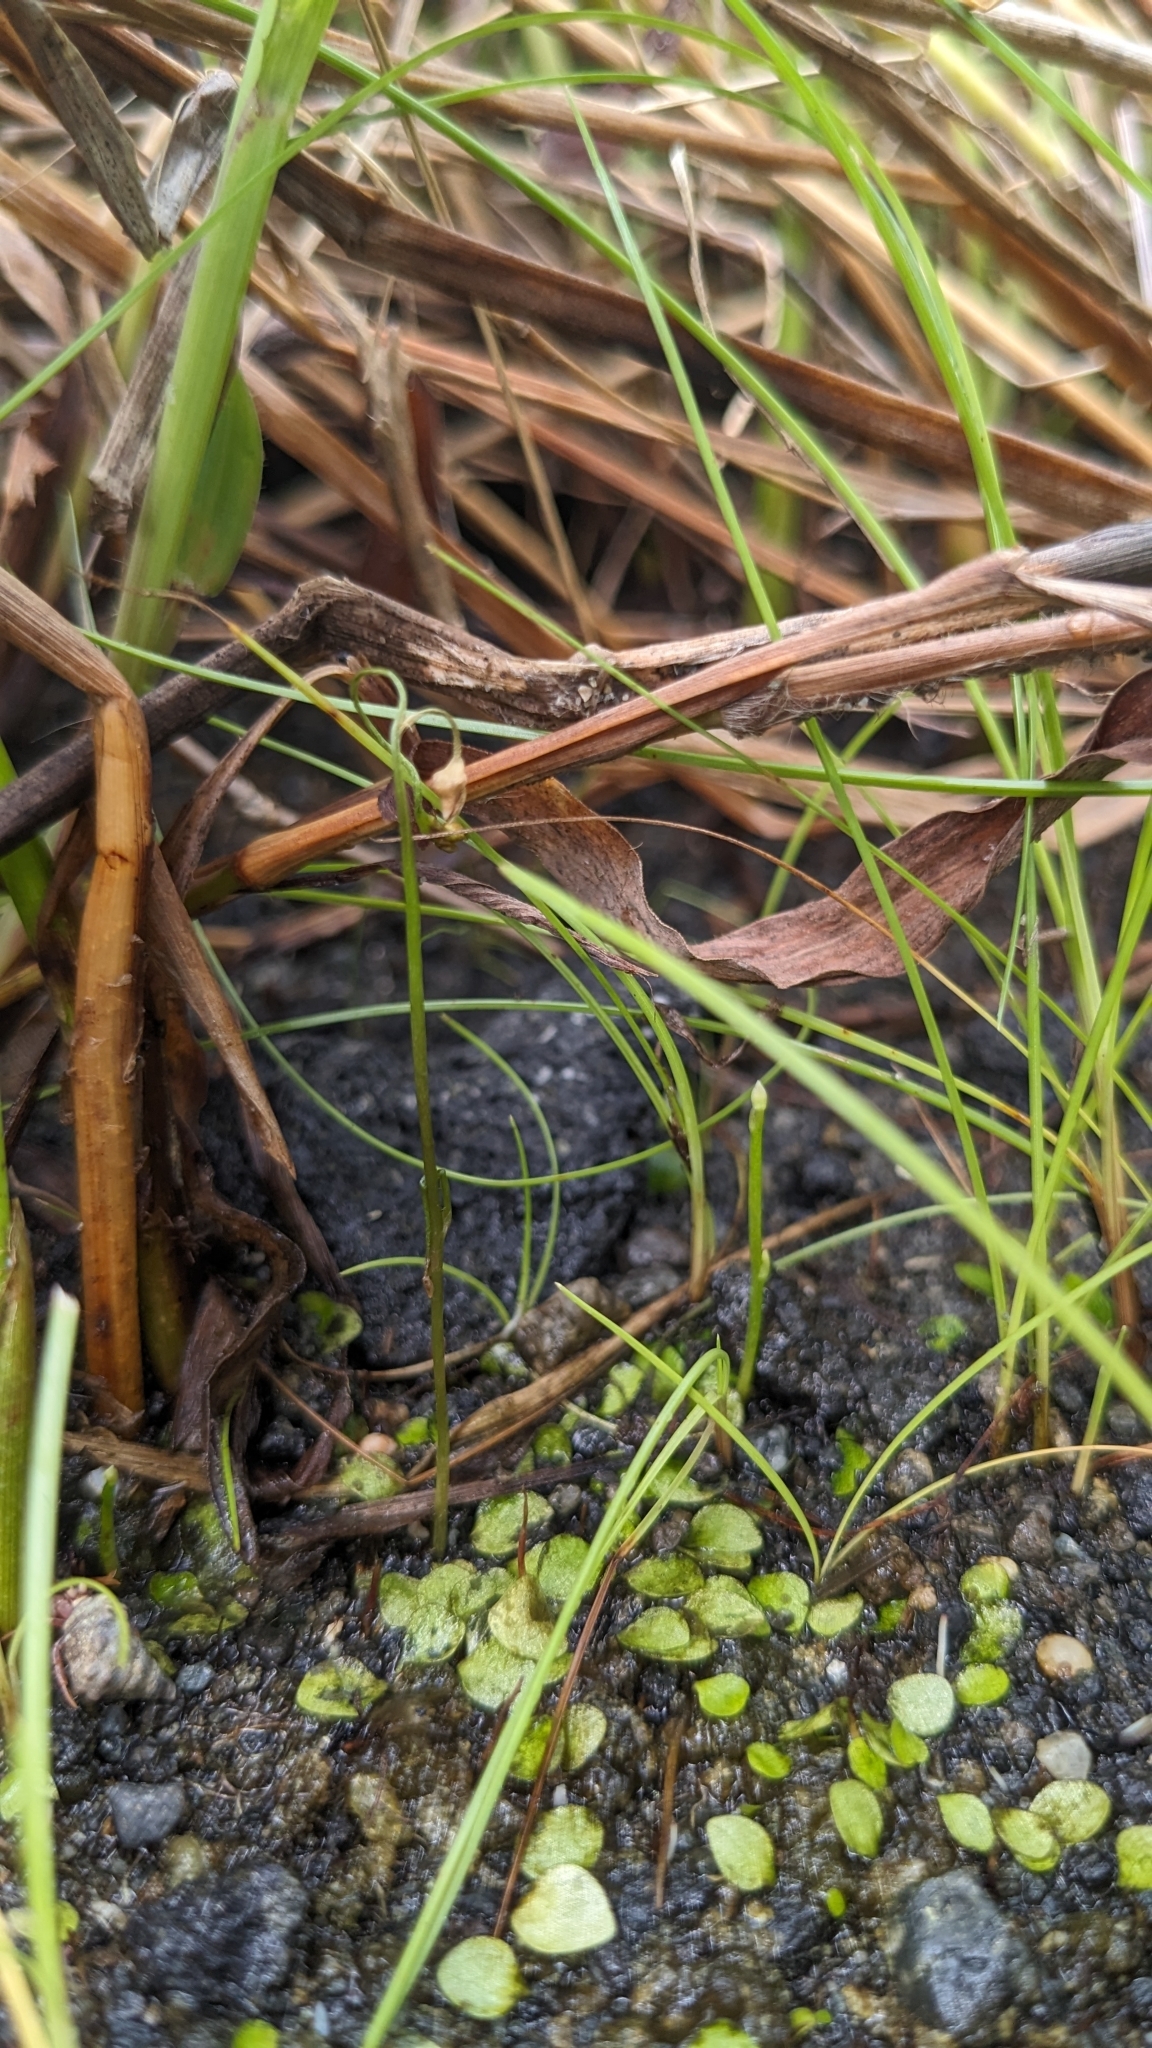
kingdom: Plantae
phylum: Tracheophyta
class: Magnoliopsida
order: Lamiales
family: Lentibulariaceae
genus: Utricularia
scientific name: Utricularia heterosepala
